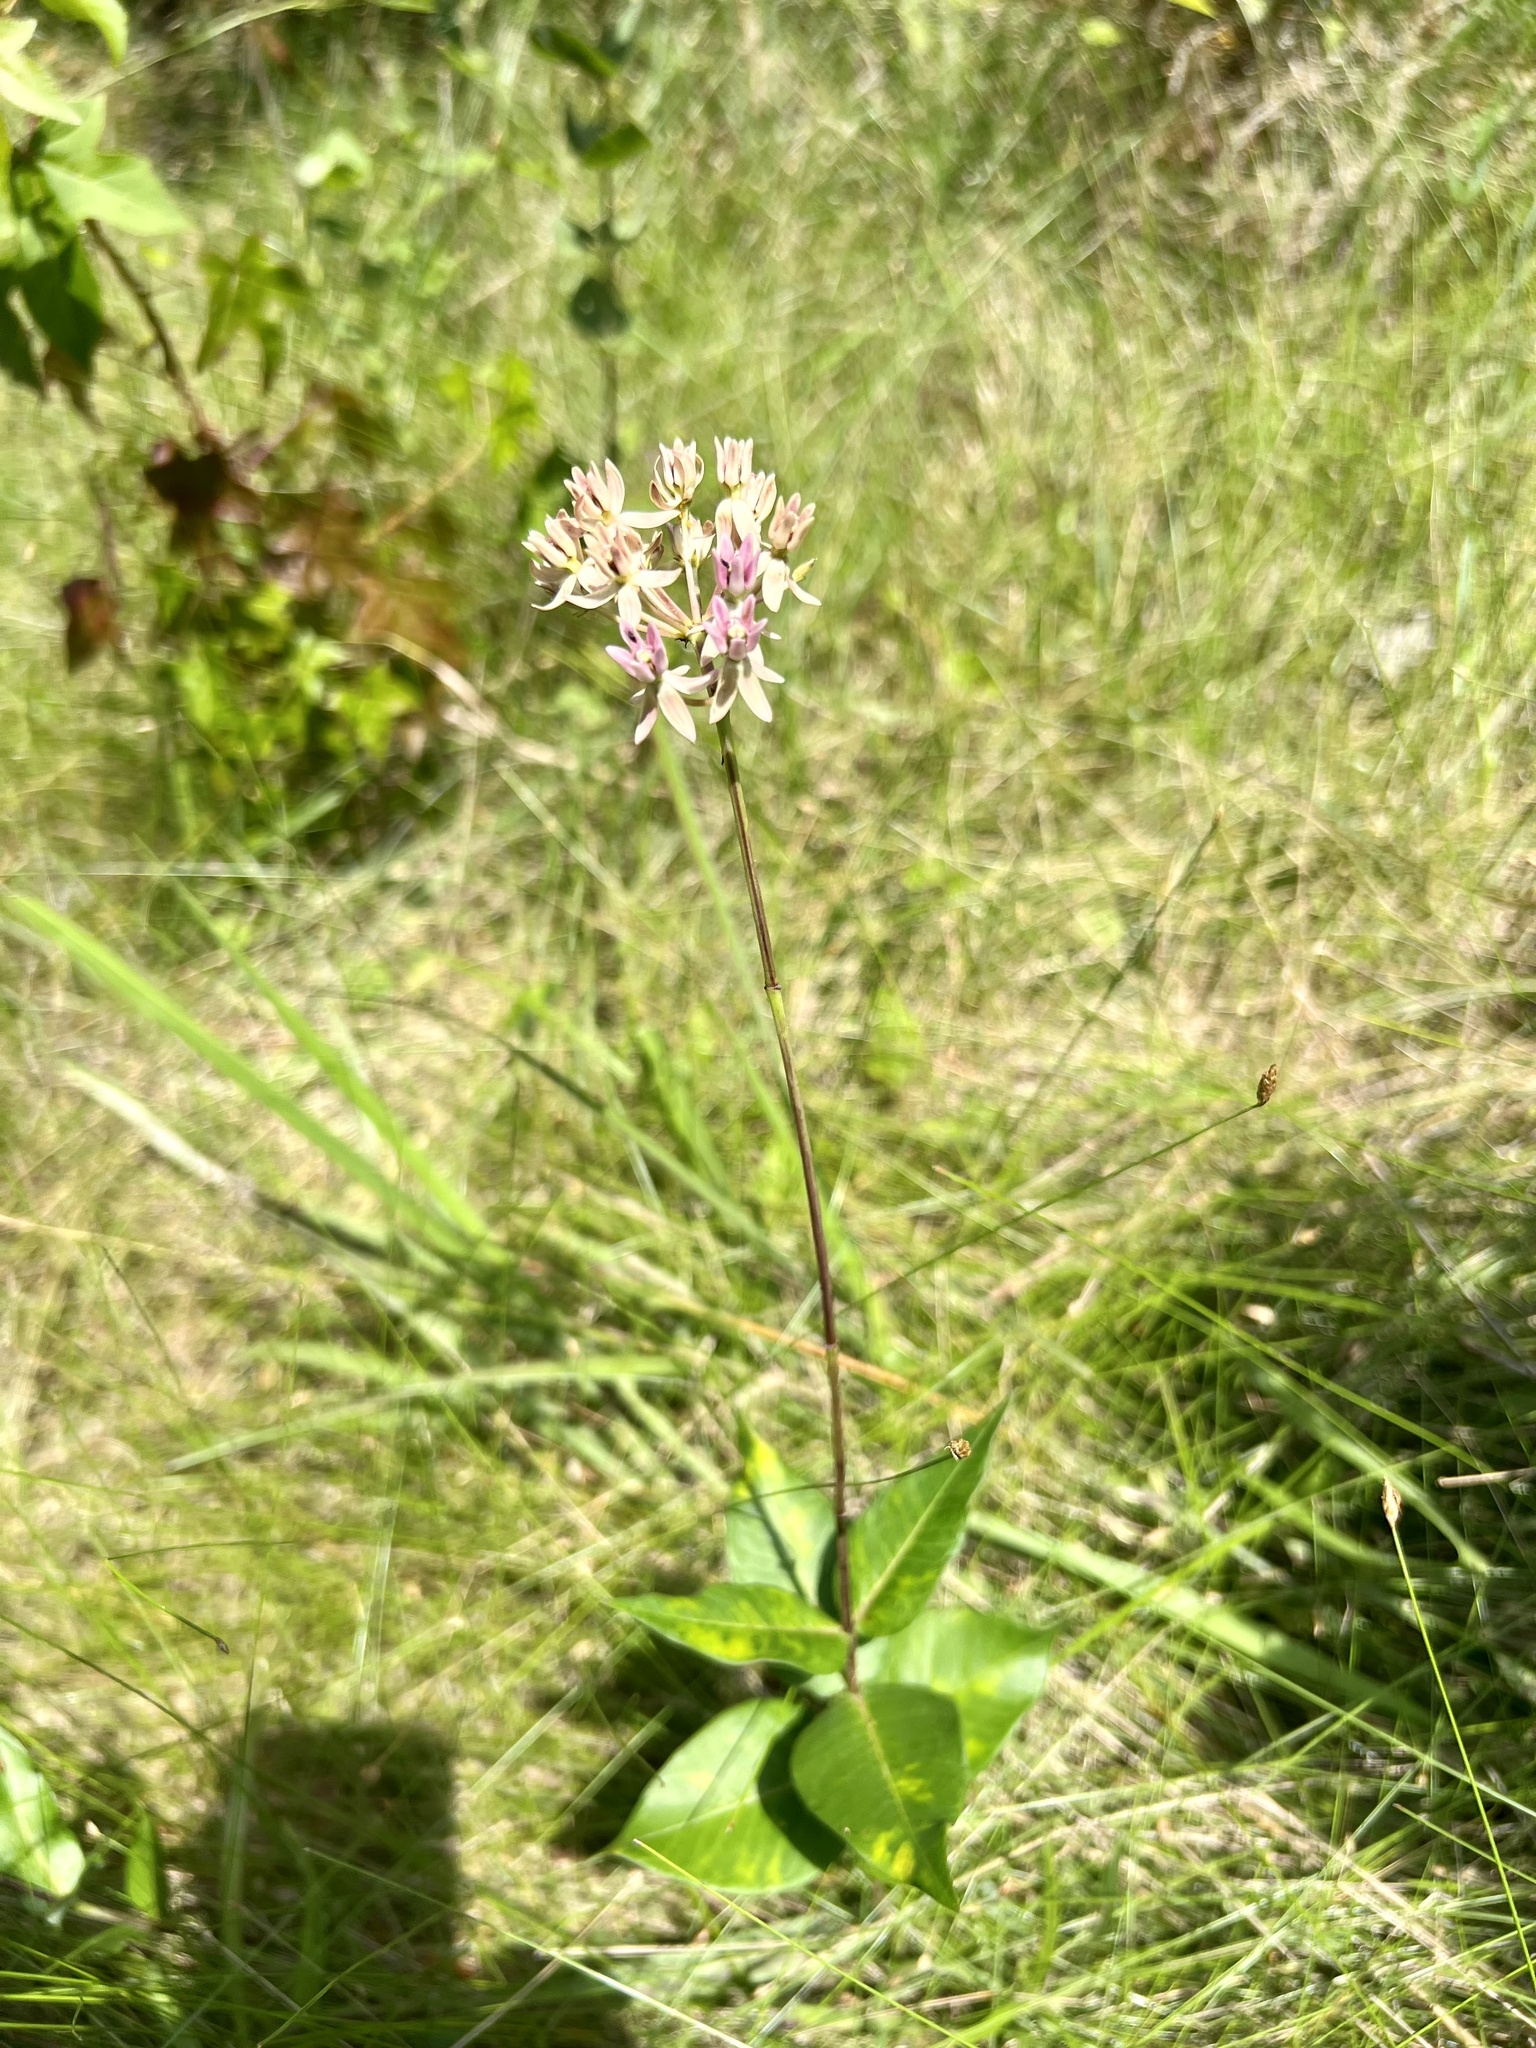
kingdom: Plantae
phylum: Tracheophyta
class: Magnoliopsida
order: Gentianales
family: Apocynaceae
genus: Asclepias
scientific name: Asclepias rubra
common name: Red milkweed
